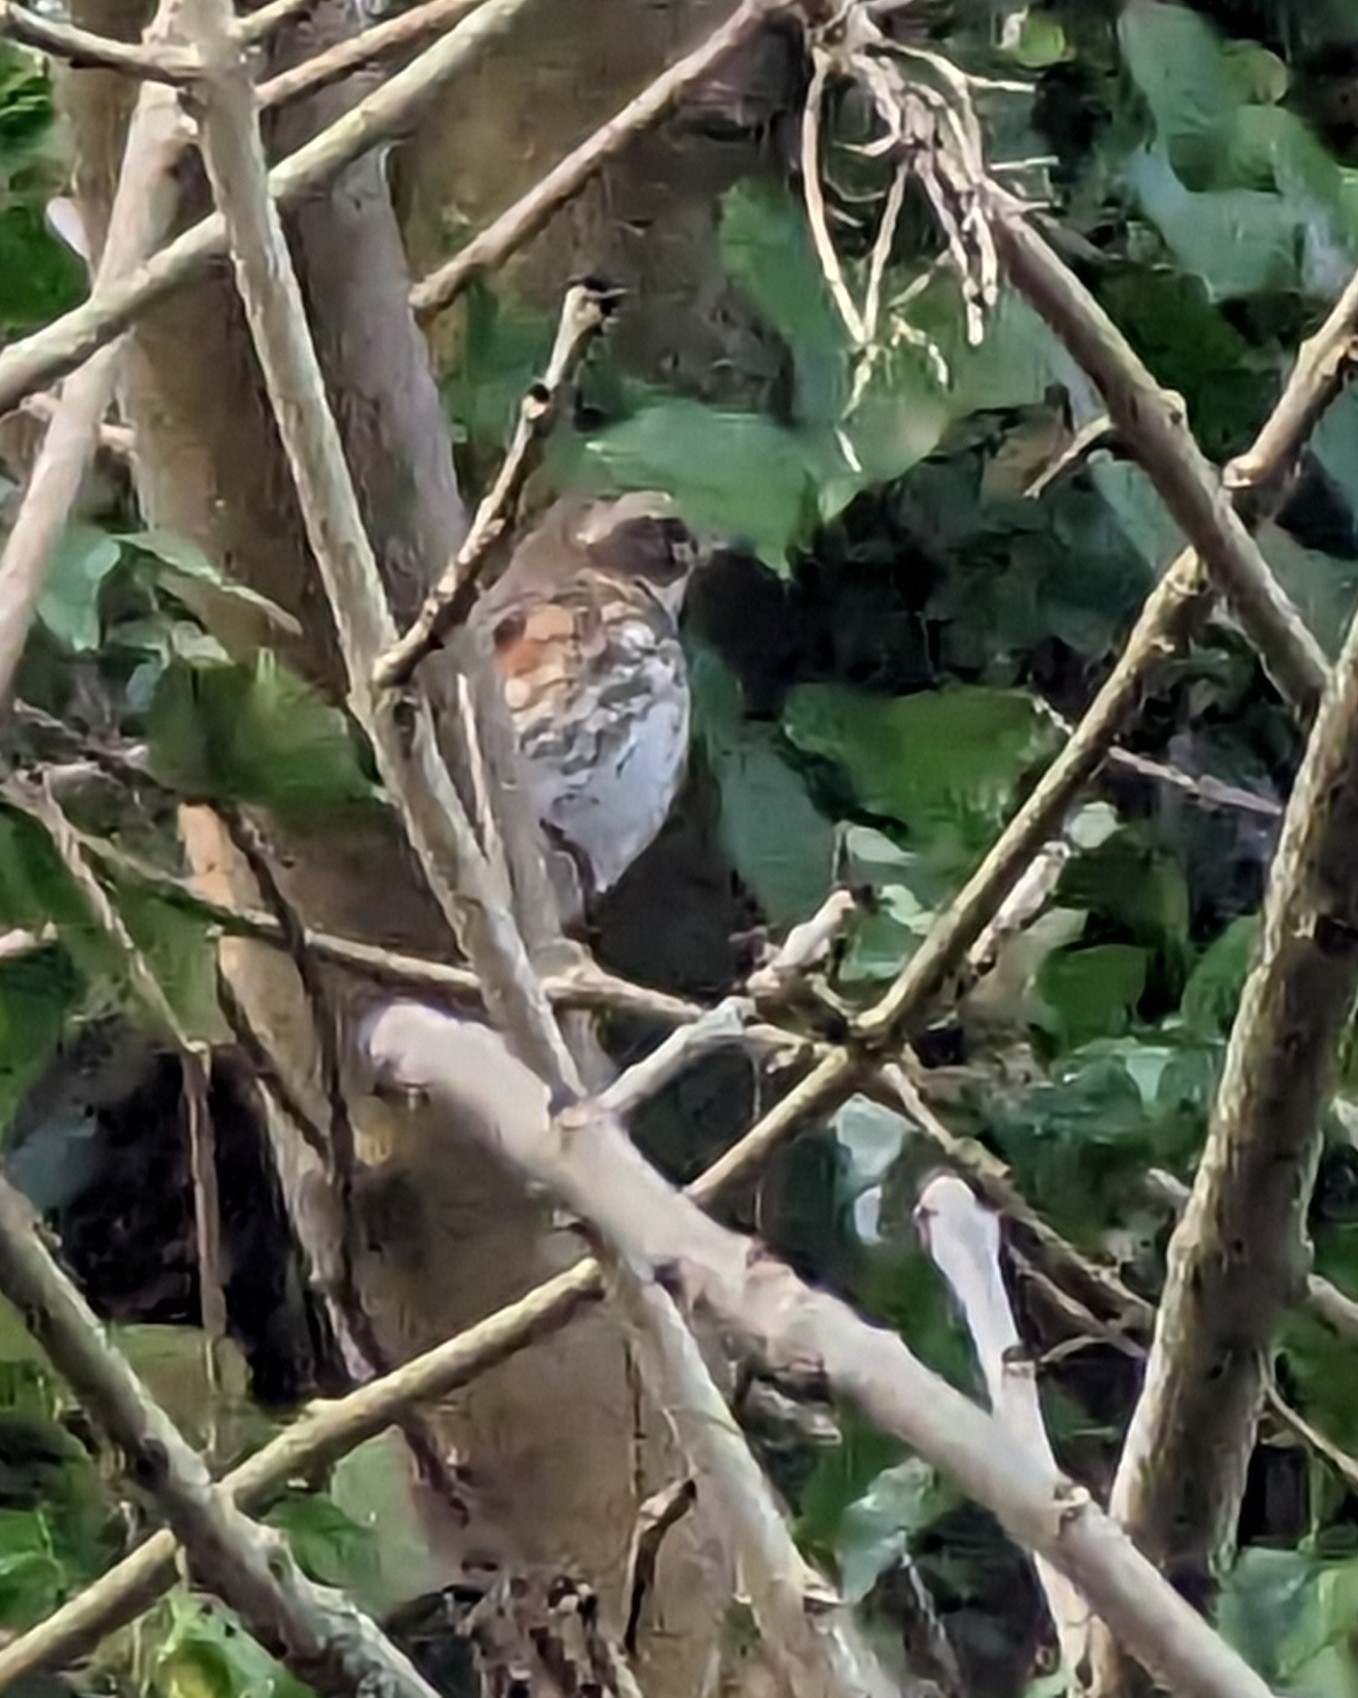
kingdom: Animalia
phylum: Chordata
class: Aves
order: Passeriformes
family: Turdidae
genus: Turdus
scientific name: Turdus iliacus
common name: Redwing
